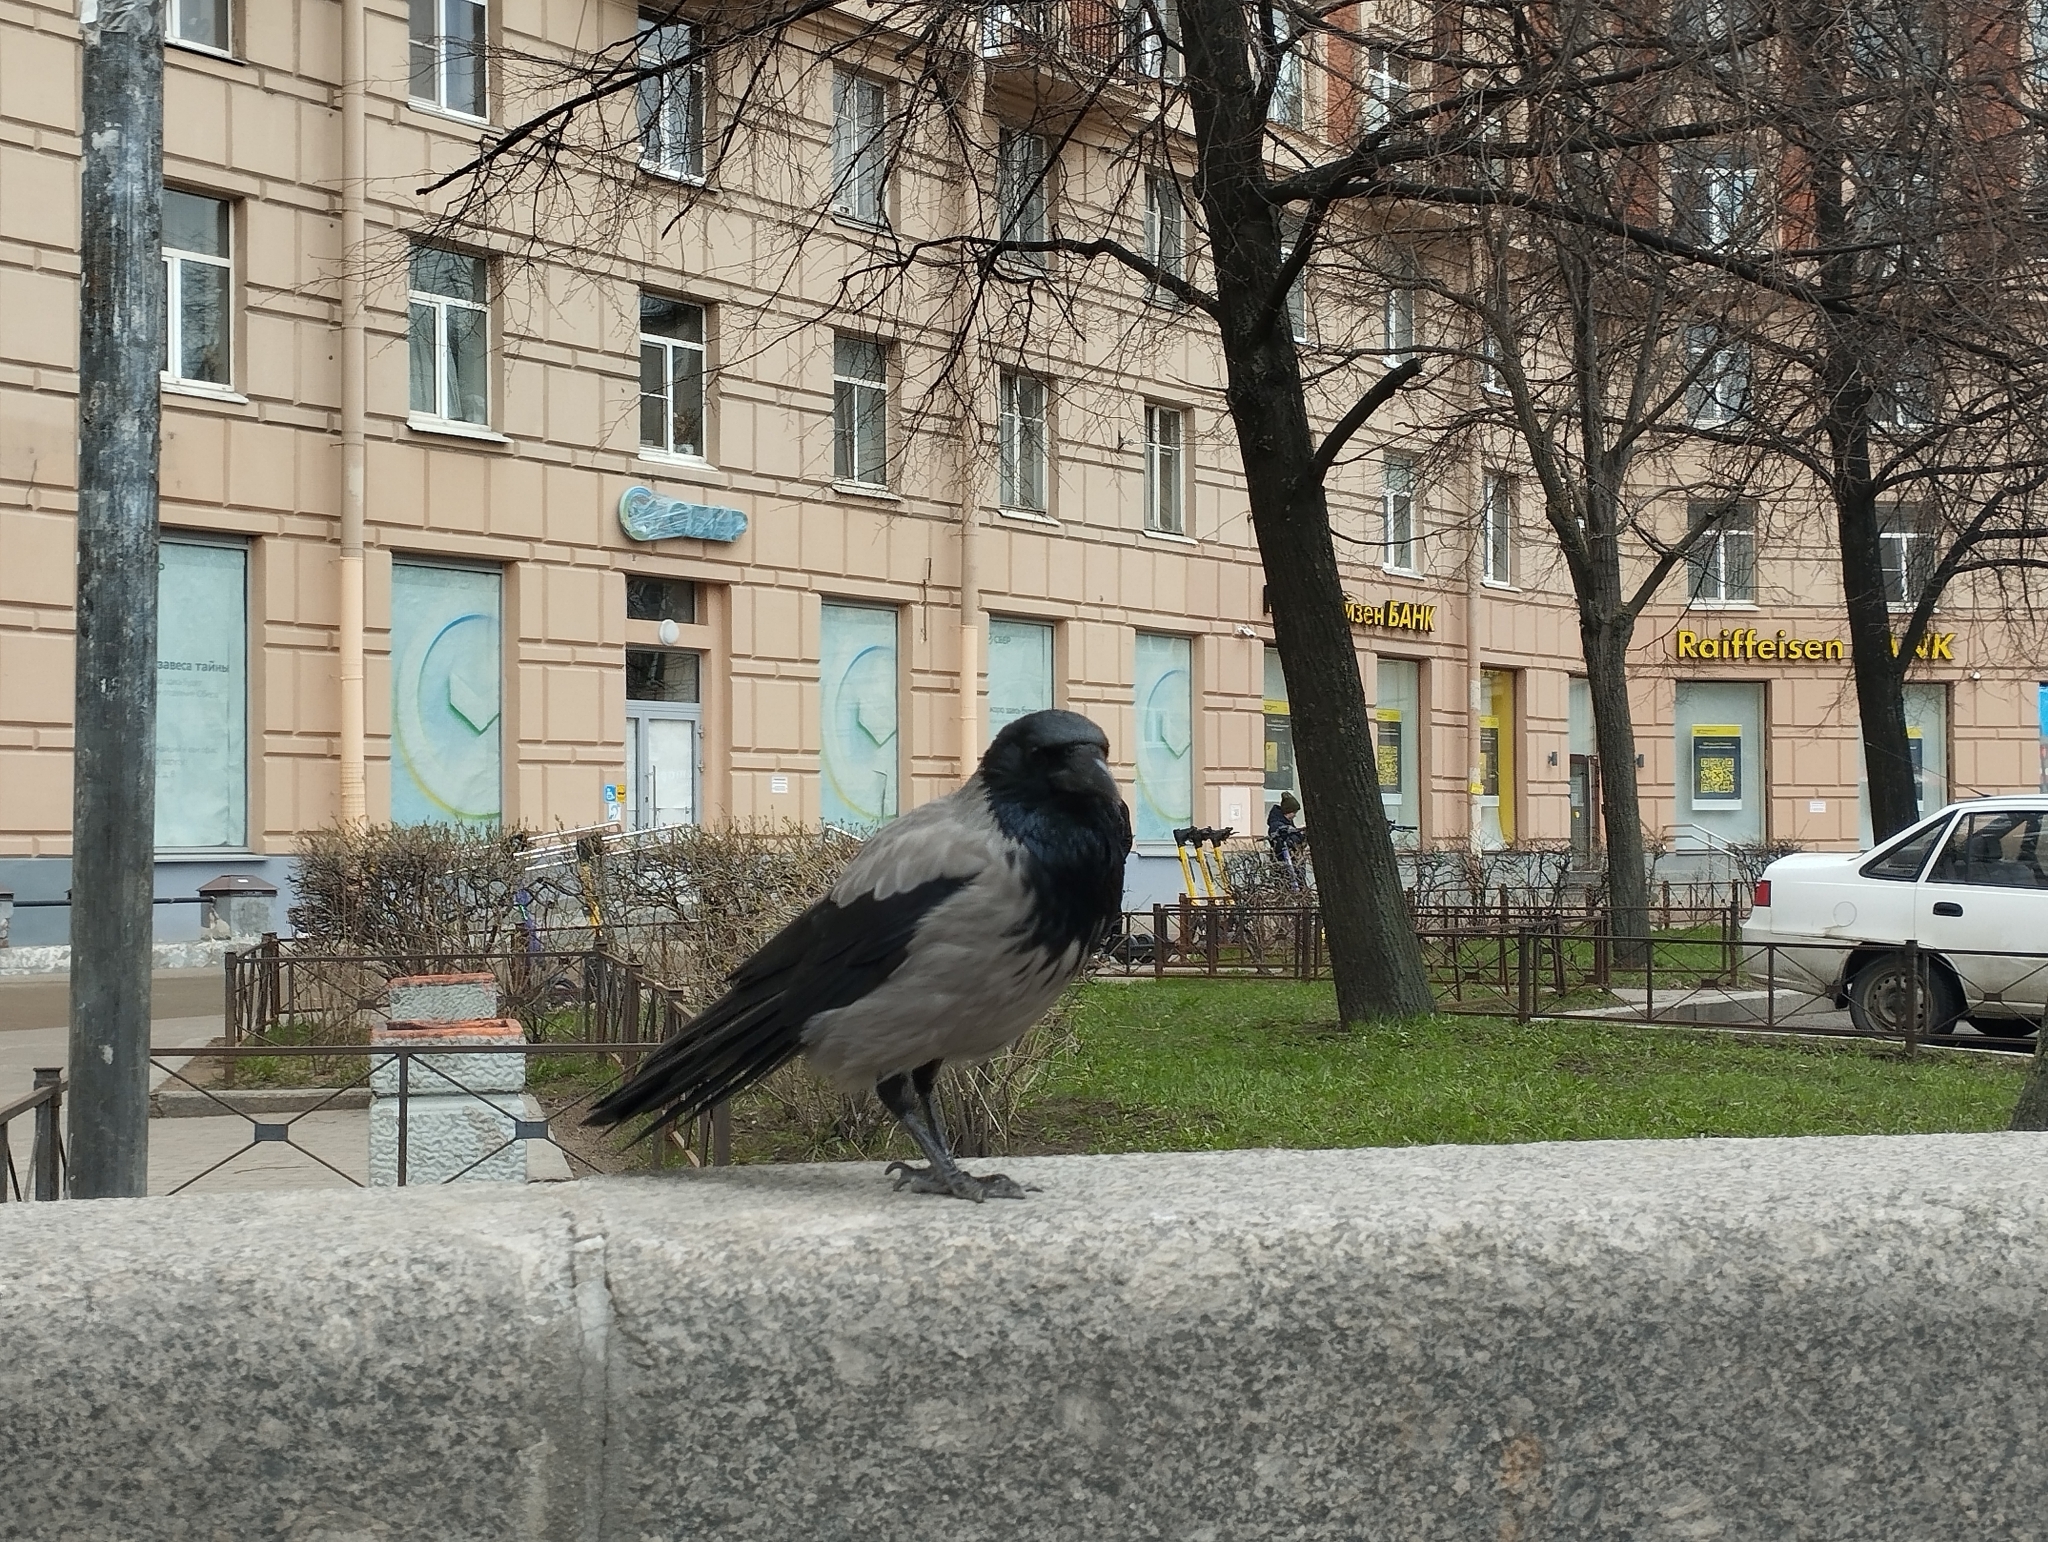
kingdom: Animalia
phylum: Chordata
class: Aves
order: Passeriformes
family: Corvidae
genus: Corvus
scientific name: Corvus cornix
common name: Hooded crow
